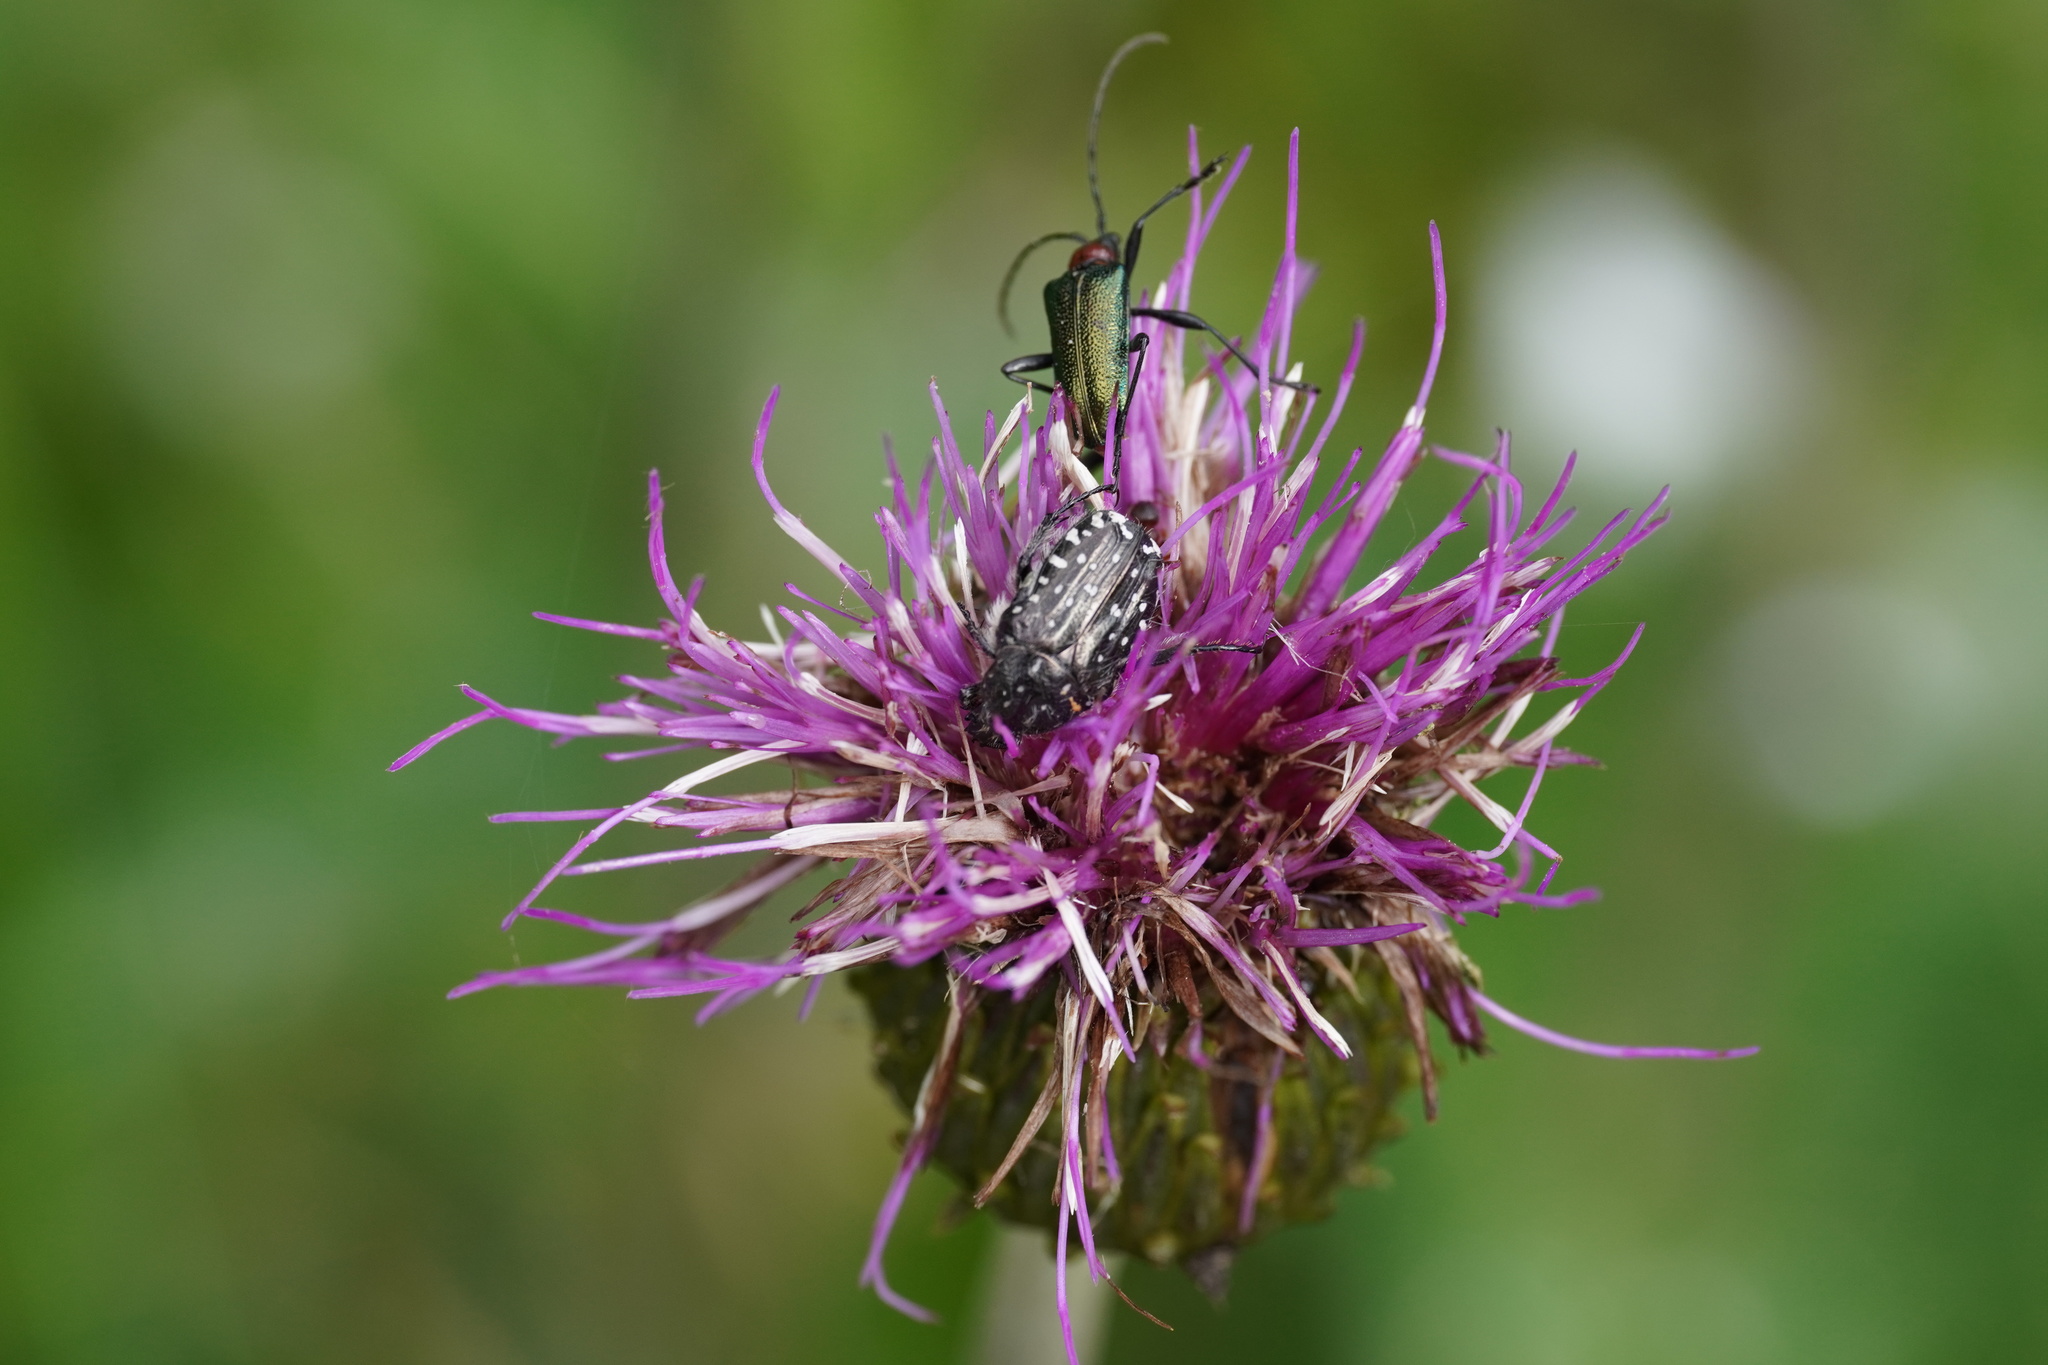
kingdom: Animalia
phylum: Arthropoda
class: Insecta
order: Coleoptera
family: Scarabaeidae
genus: Oxythyrea
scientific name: Oxythyrea funesta
